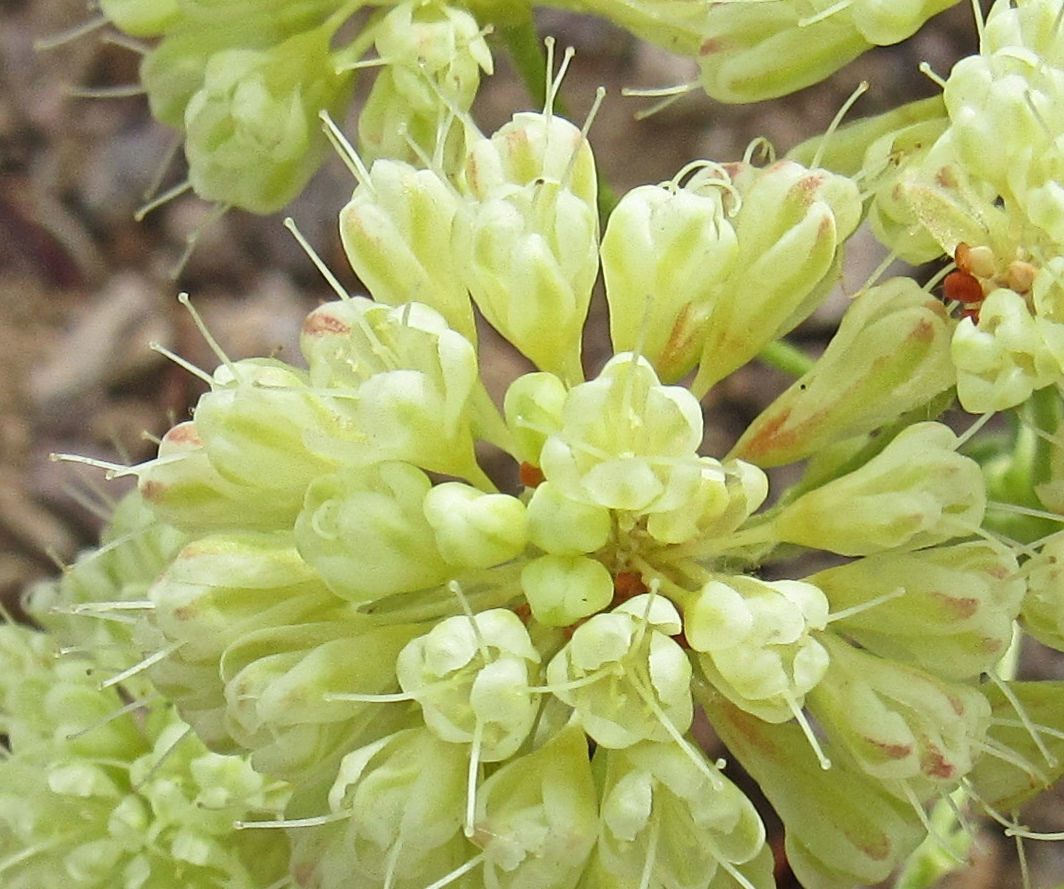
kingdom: Plantae
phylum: Tracheophyta
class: Magnoliopsida
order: Caryophyllales
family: Polygonaceae
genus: Eriogonum
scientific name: Eriogonum umbellatum
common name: Sulfur-buckwheat
